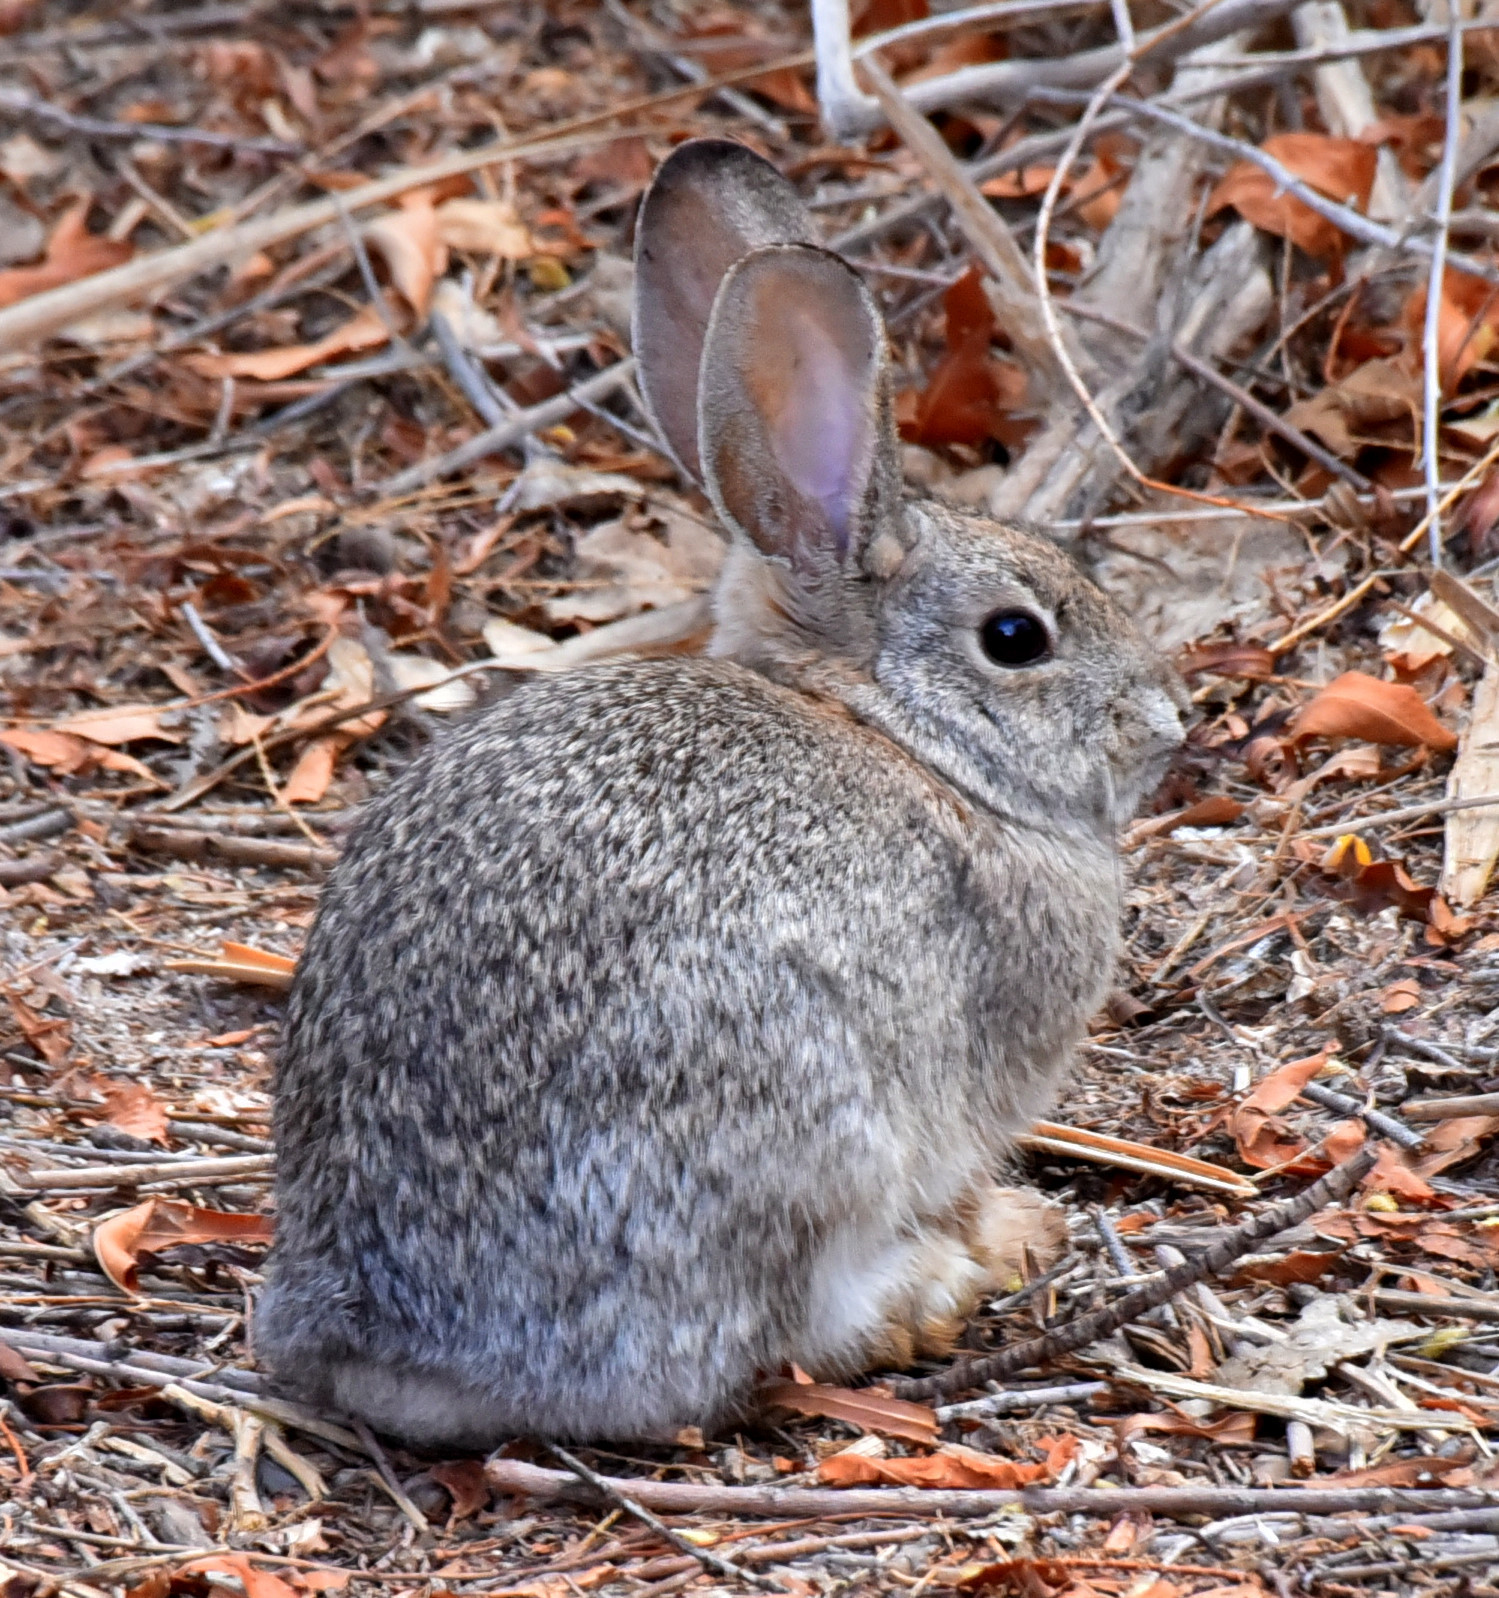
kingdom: Animalia
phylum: Chordata
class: Mammalia
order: Lagomorpha
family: Leporidae
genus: Sylvilagus
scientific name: Sylvilagus audubonii
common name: Desert cottontail
